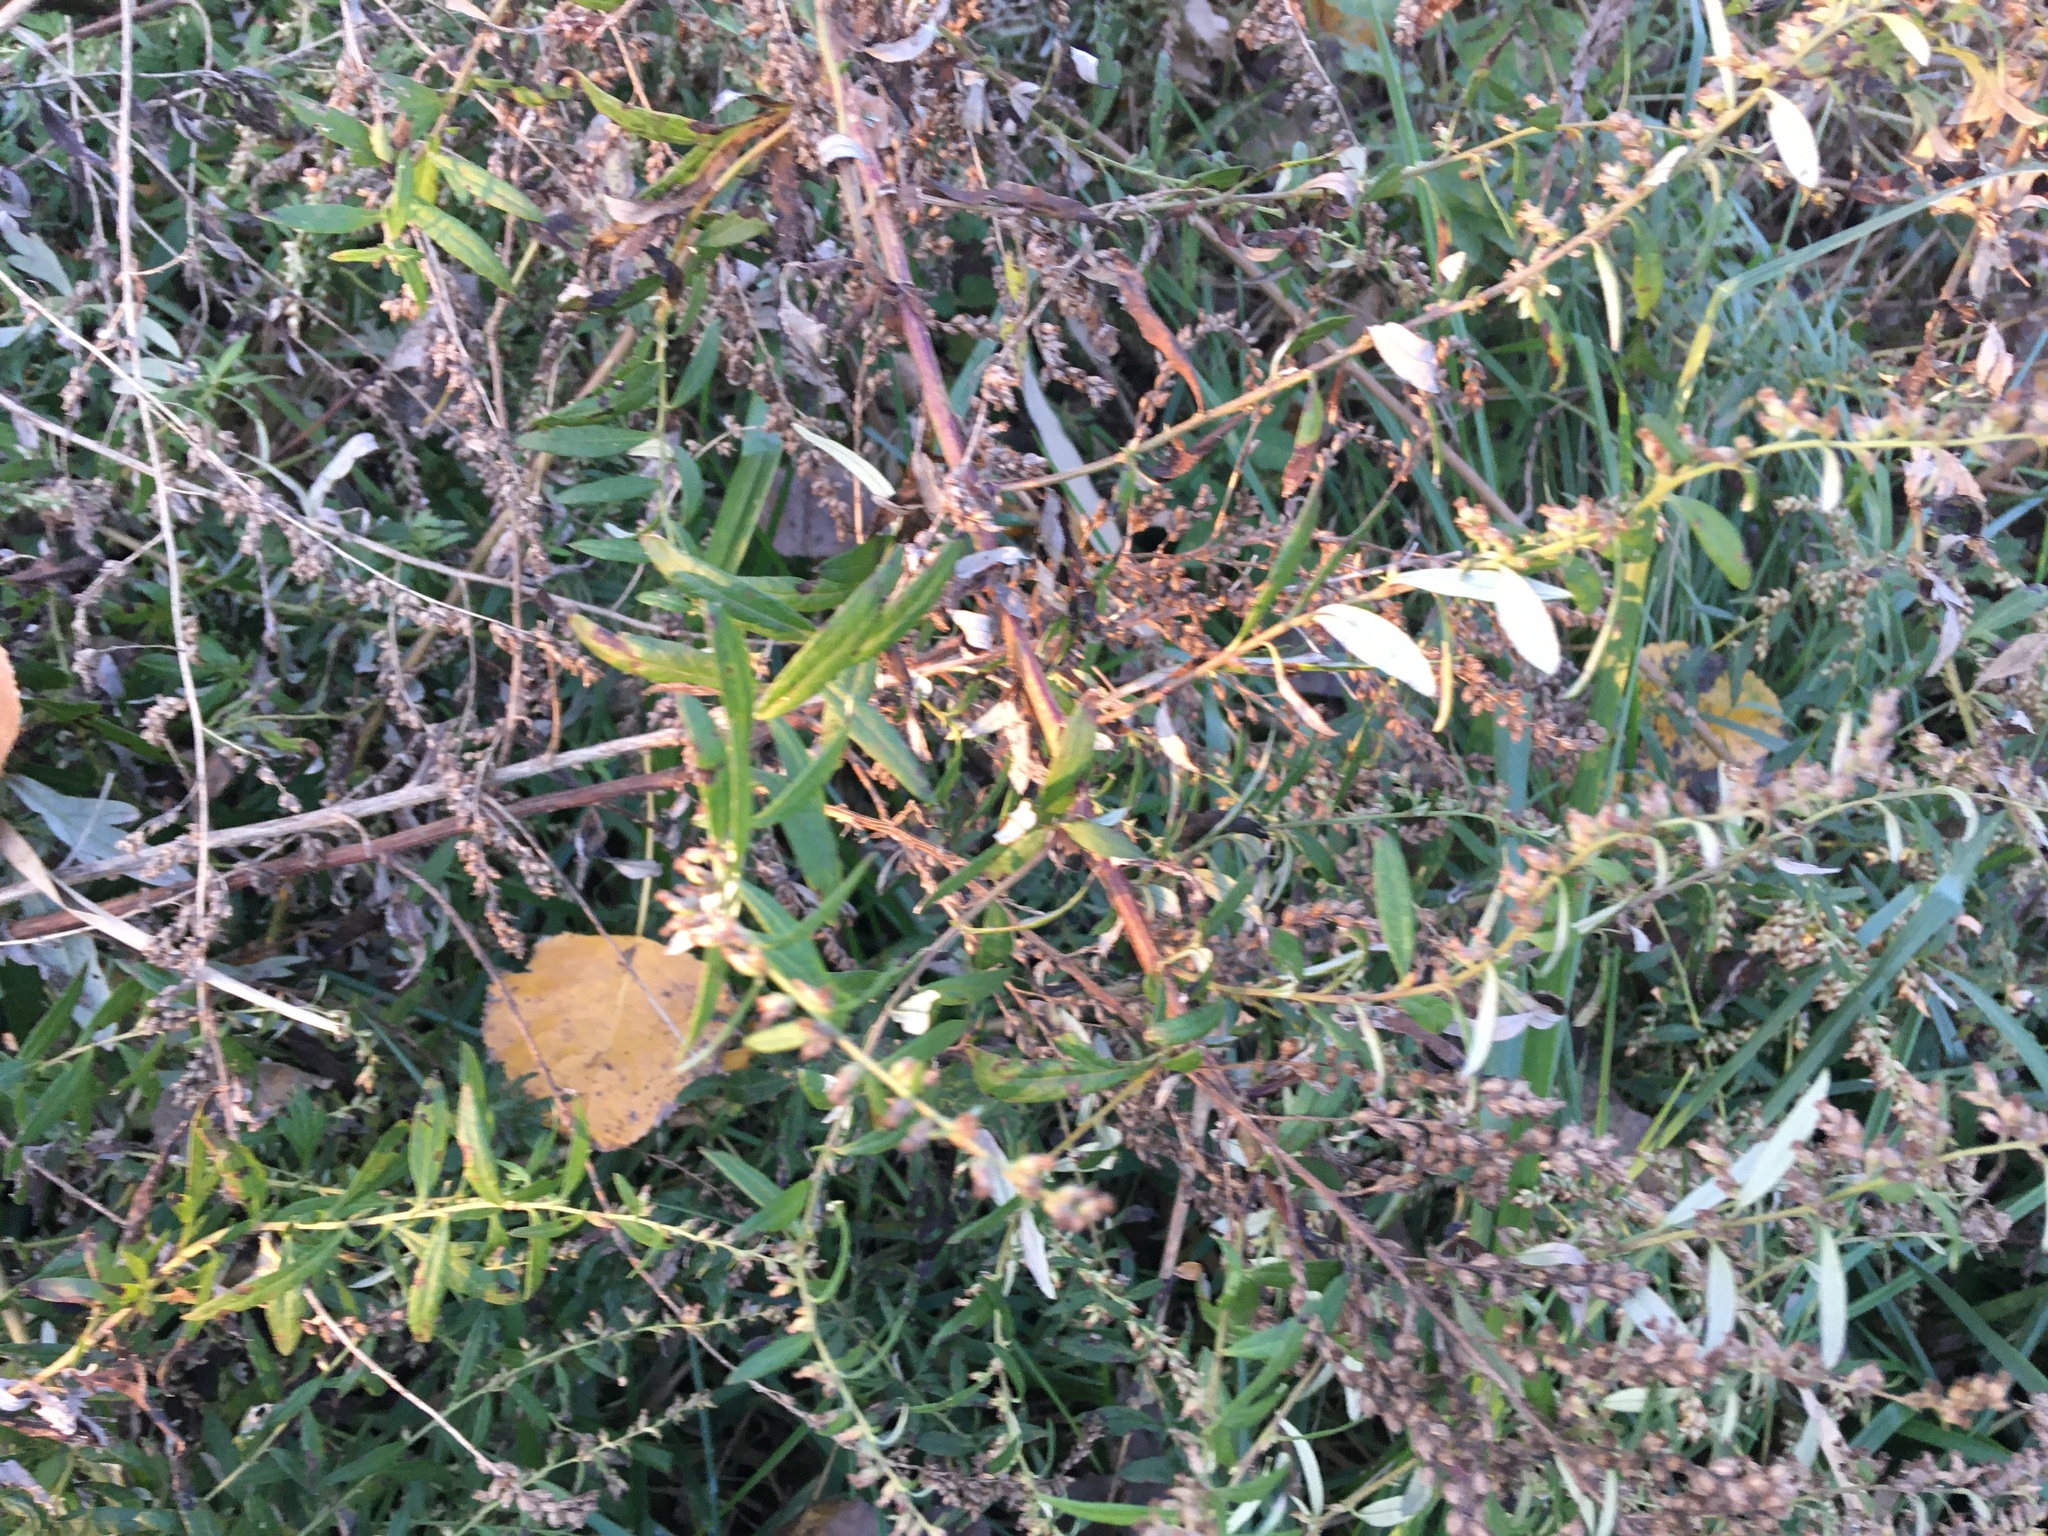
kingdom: Plantae
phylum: Tracheophyta
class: Magnoliopsida
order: Asterales
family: Asteraceae
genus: Artemisia
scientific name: Artemisia vulgaris
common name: Mugwort
